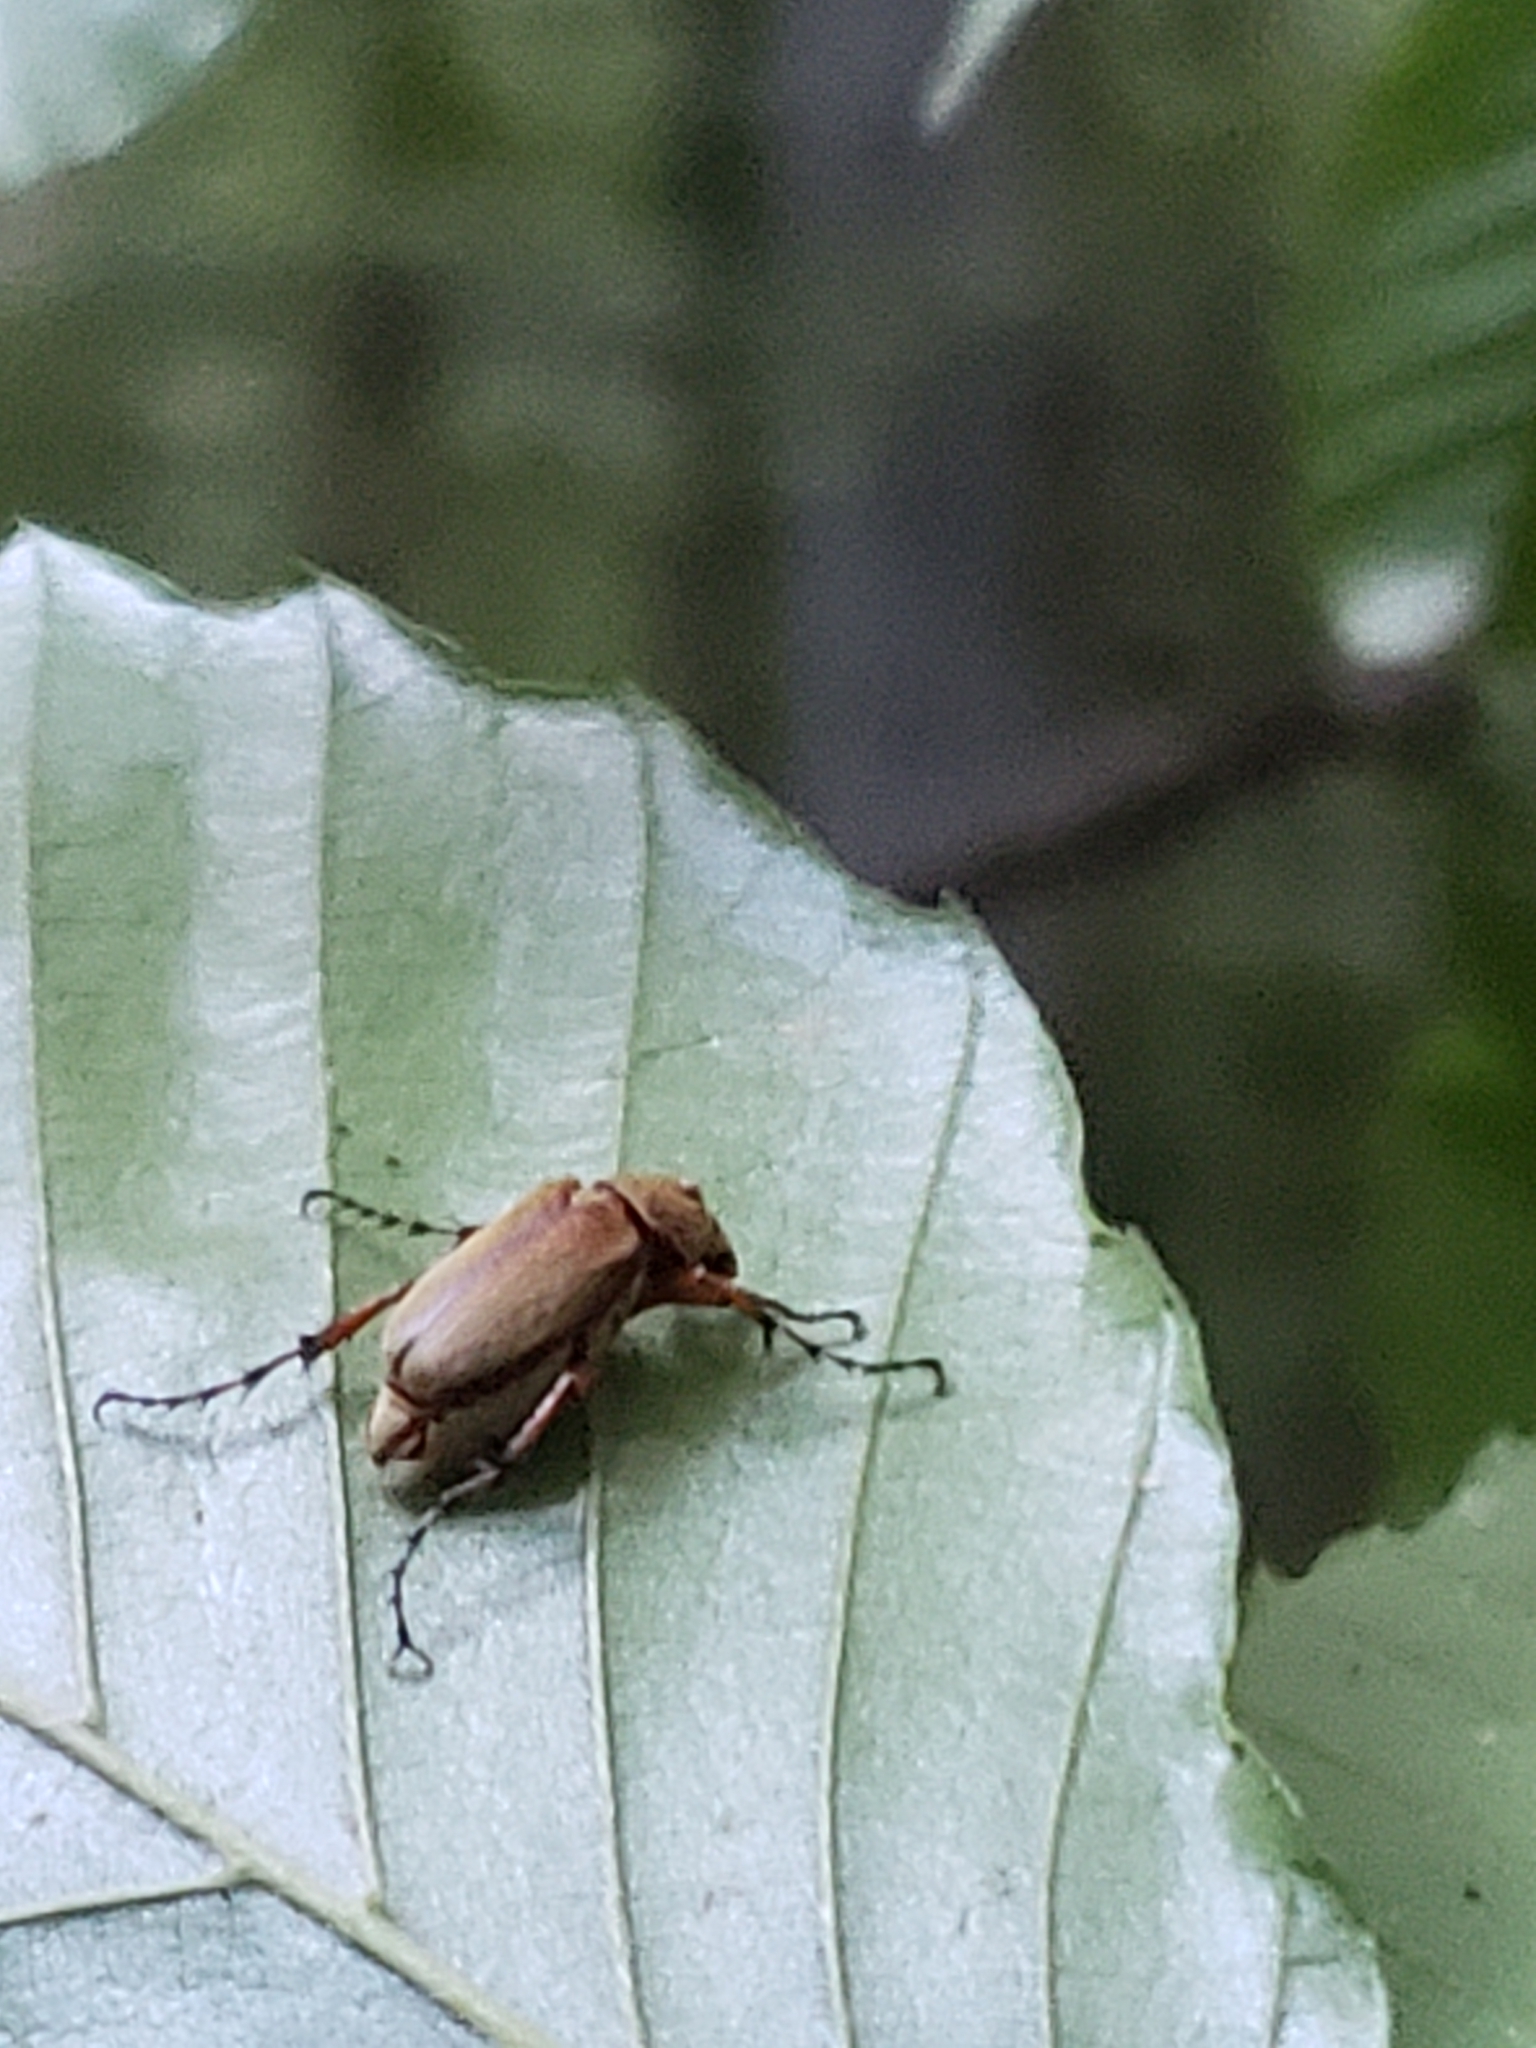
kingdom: Animalia
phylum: Arthropoda
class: Insecta
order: Coleoptera
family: Scarabaeidae
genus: Macrodactylus
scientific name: Macrodactylus subspinosus
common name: American rose chafer
